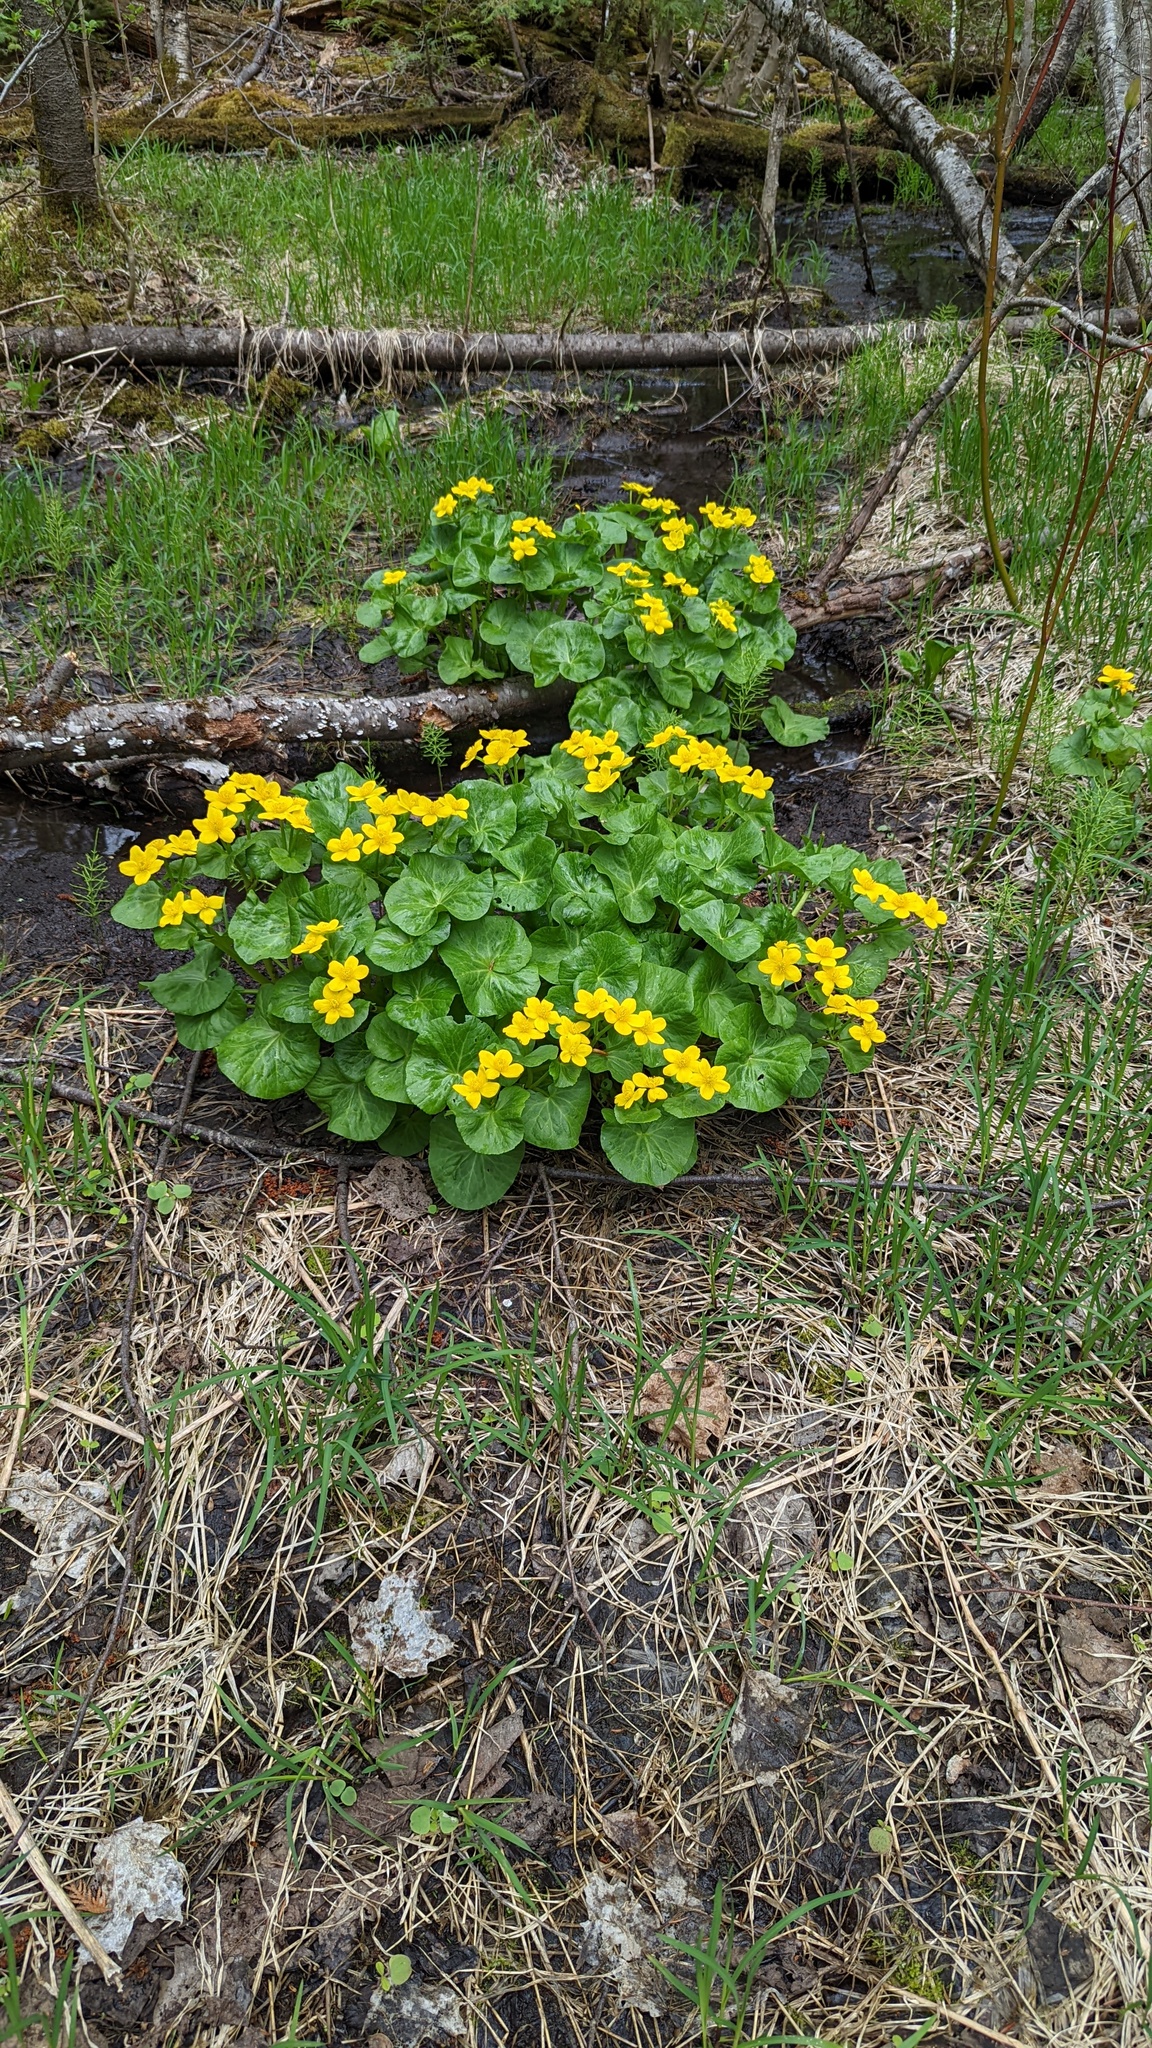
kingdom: Plantae
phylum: Tracheophyta
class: Magnoliopsida
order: Ranunculales
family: Ranunculaceae
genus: Caltha
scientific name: Caltha palustris
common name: Marsh marigold
